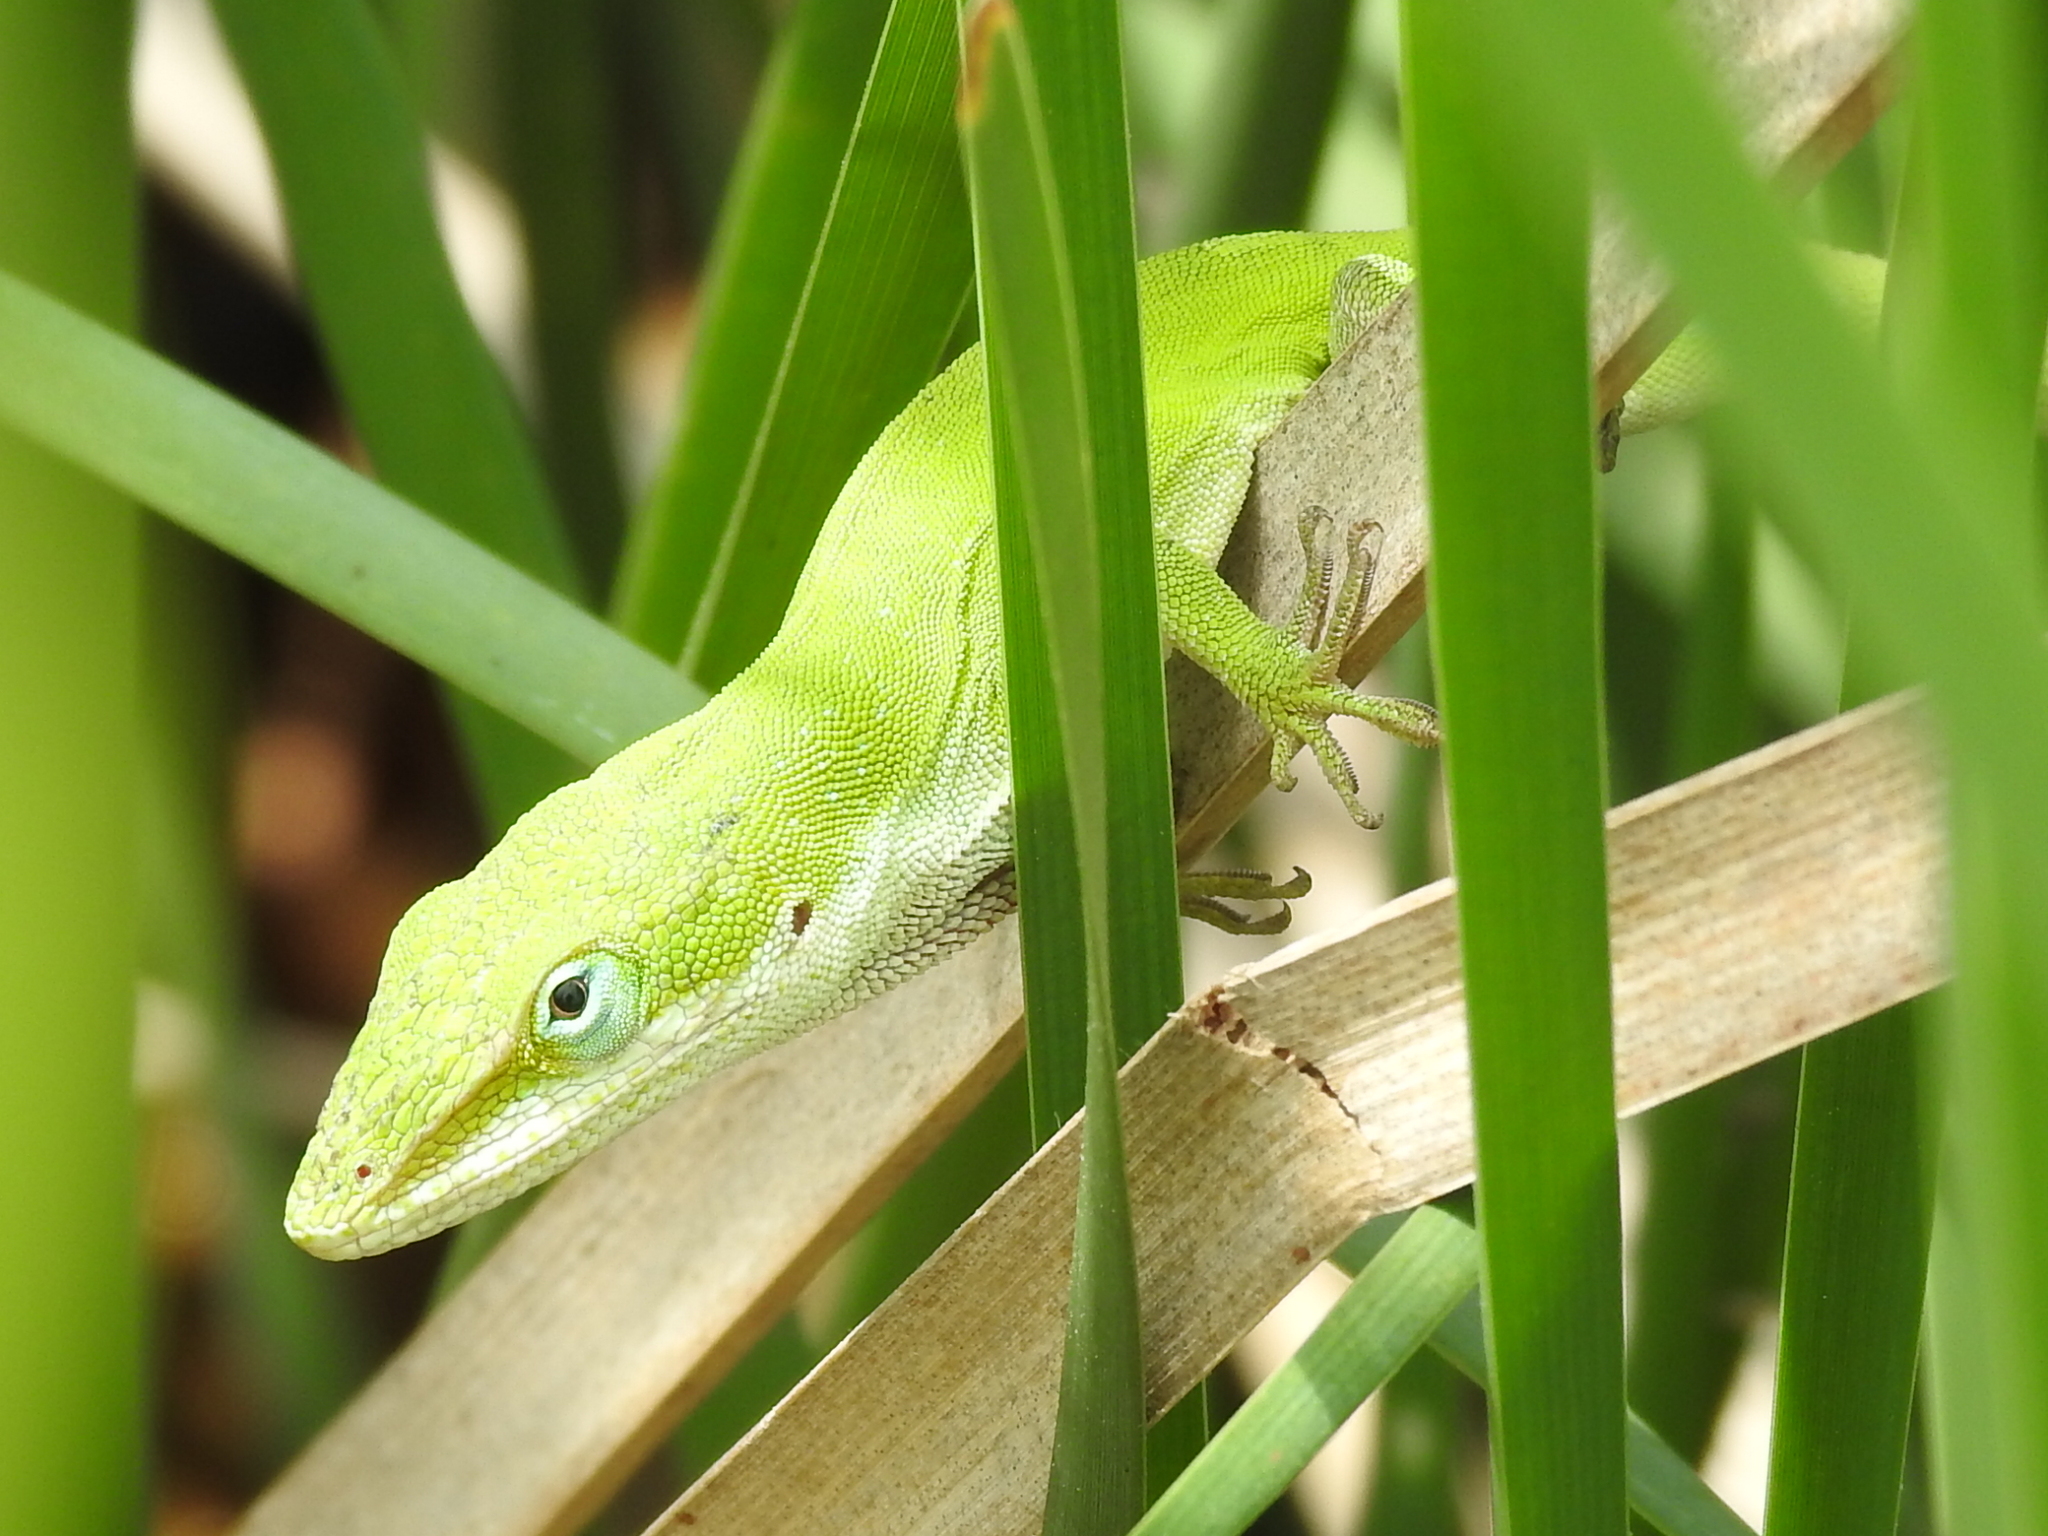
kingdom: Animalia
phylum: Chordata
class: Squamata
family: Dactyloidae
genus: Anolis
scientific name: Anolis carolinensis
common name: Green anole
